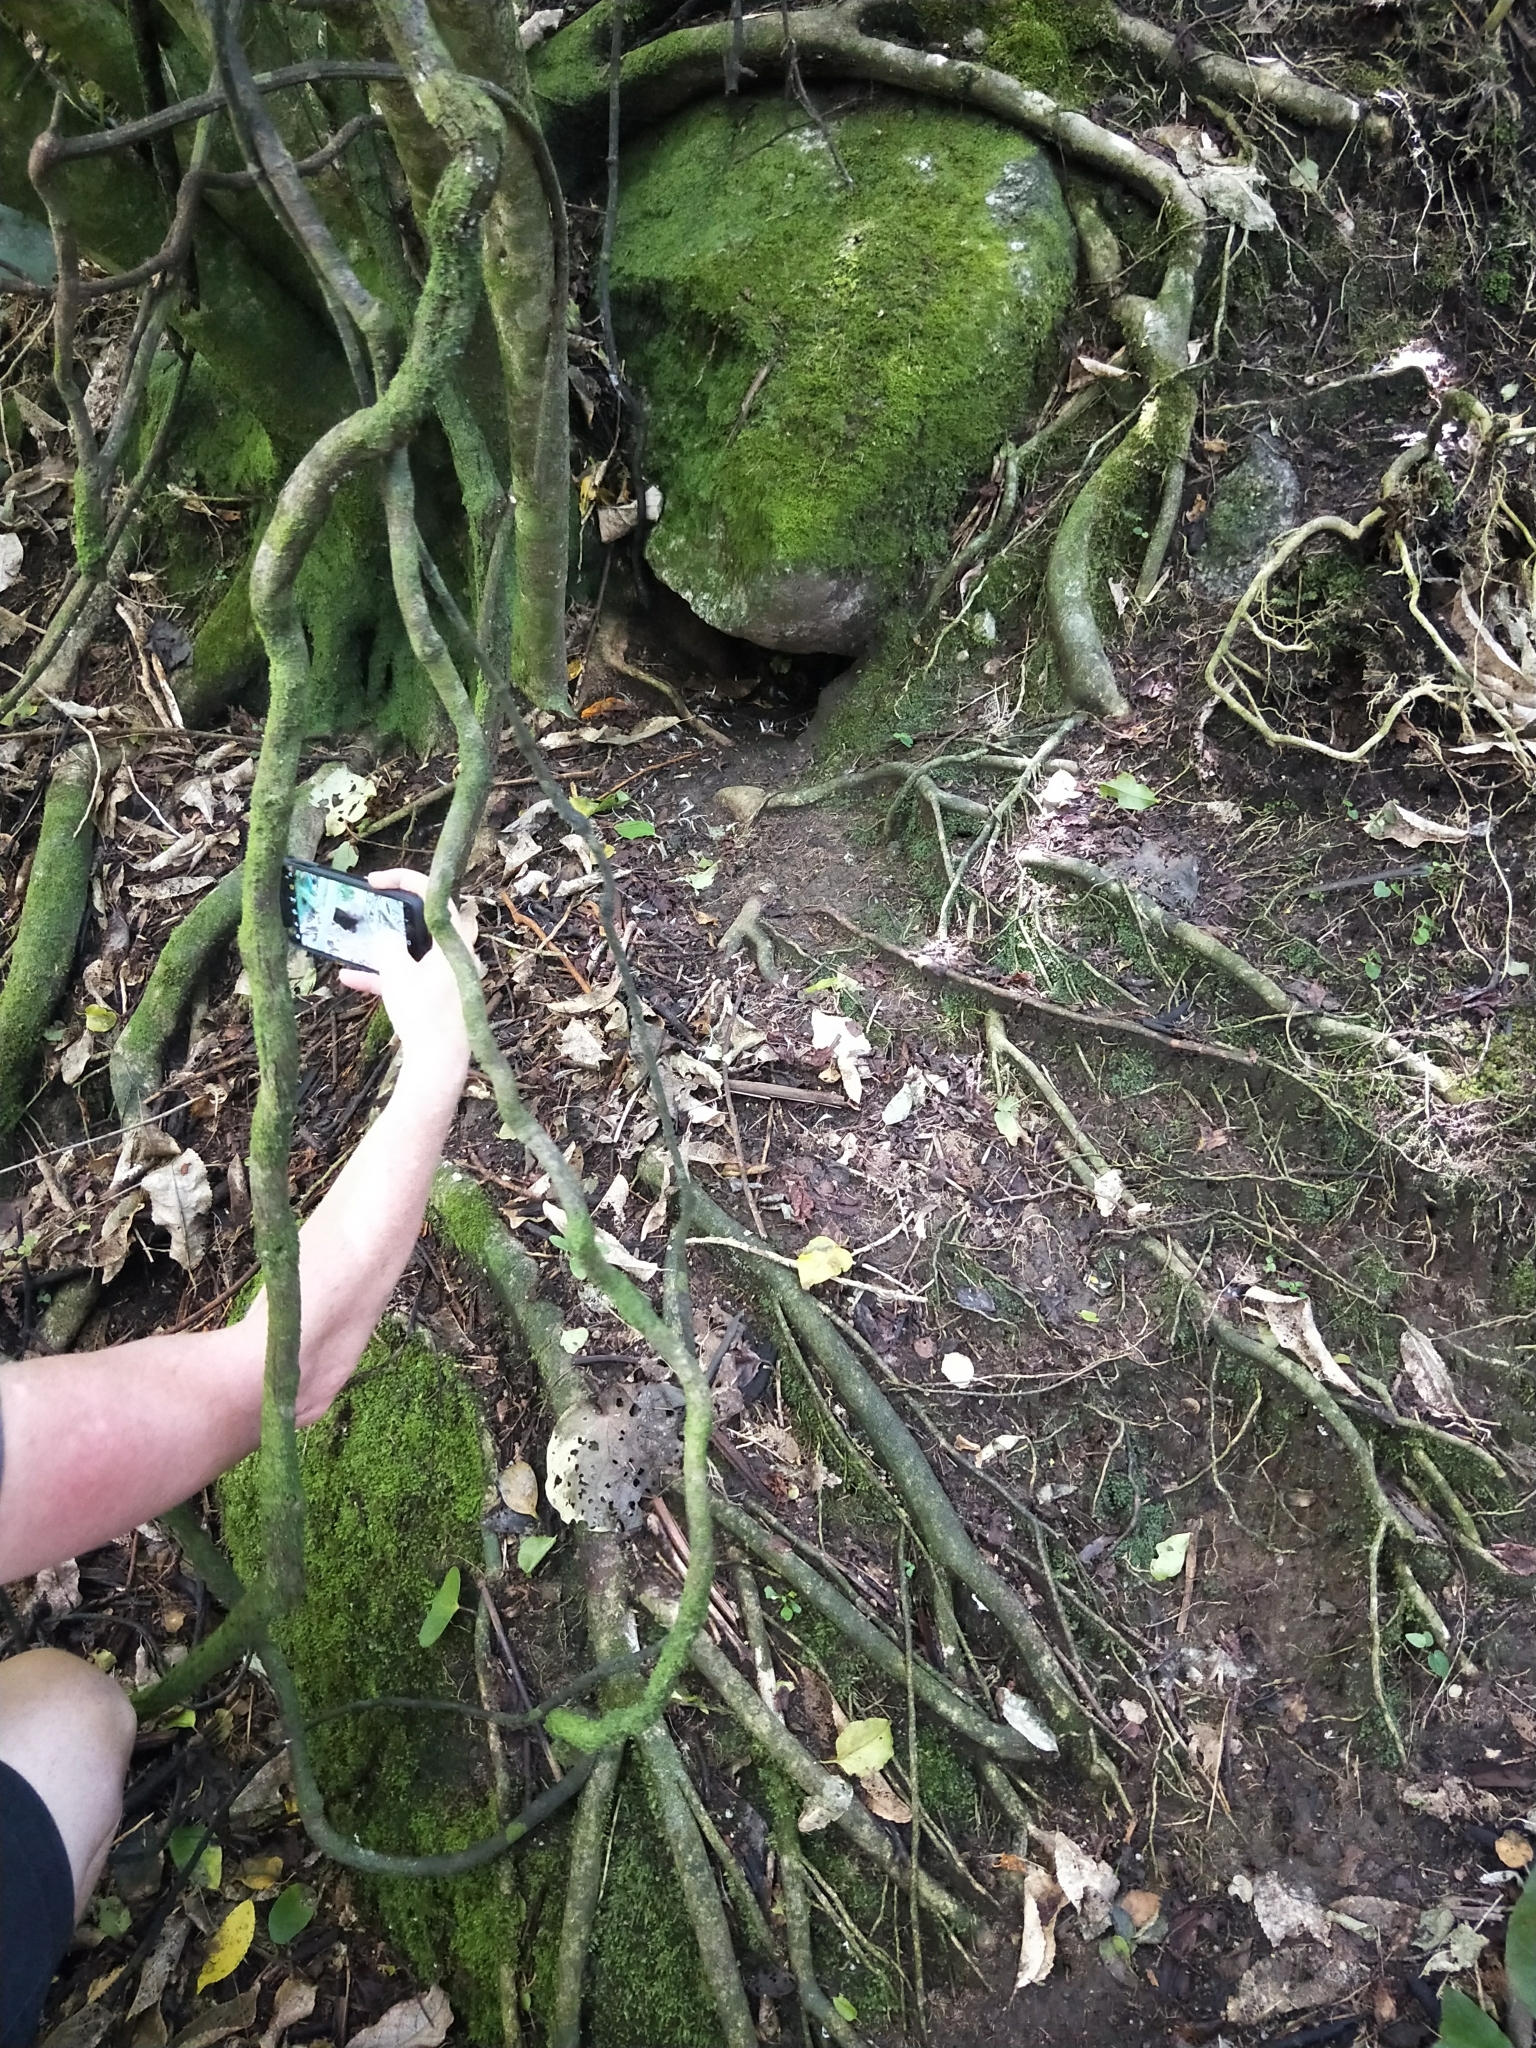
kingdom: Animalia
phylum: Chordata
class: Aves
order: Sphenisciformes
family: Spheniscidae
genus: Eudyptula
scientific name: Eudyptula minor
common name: Little penguin
